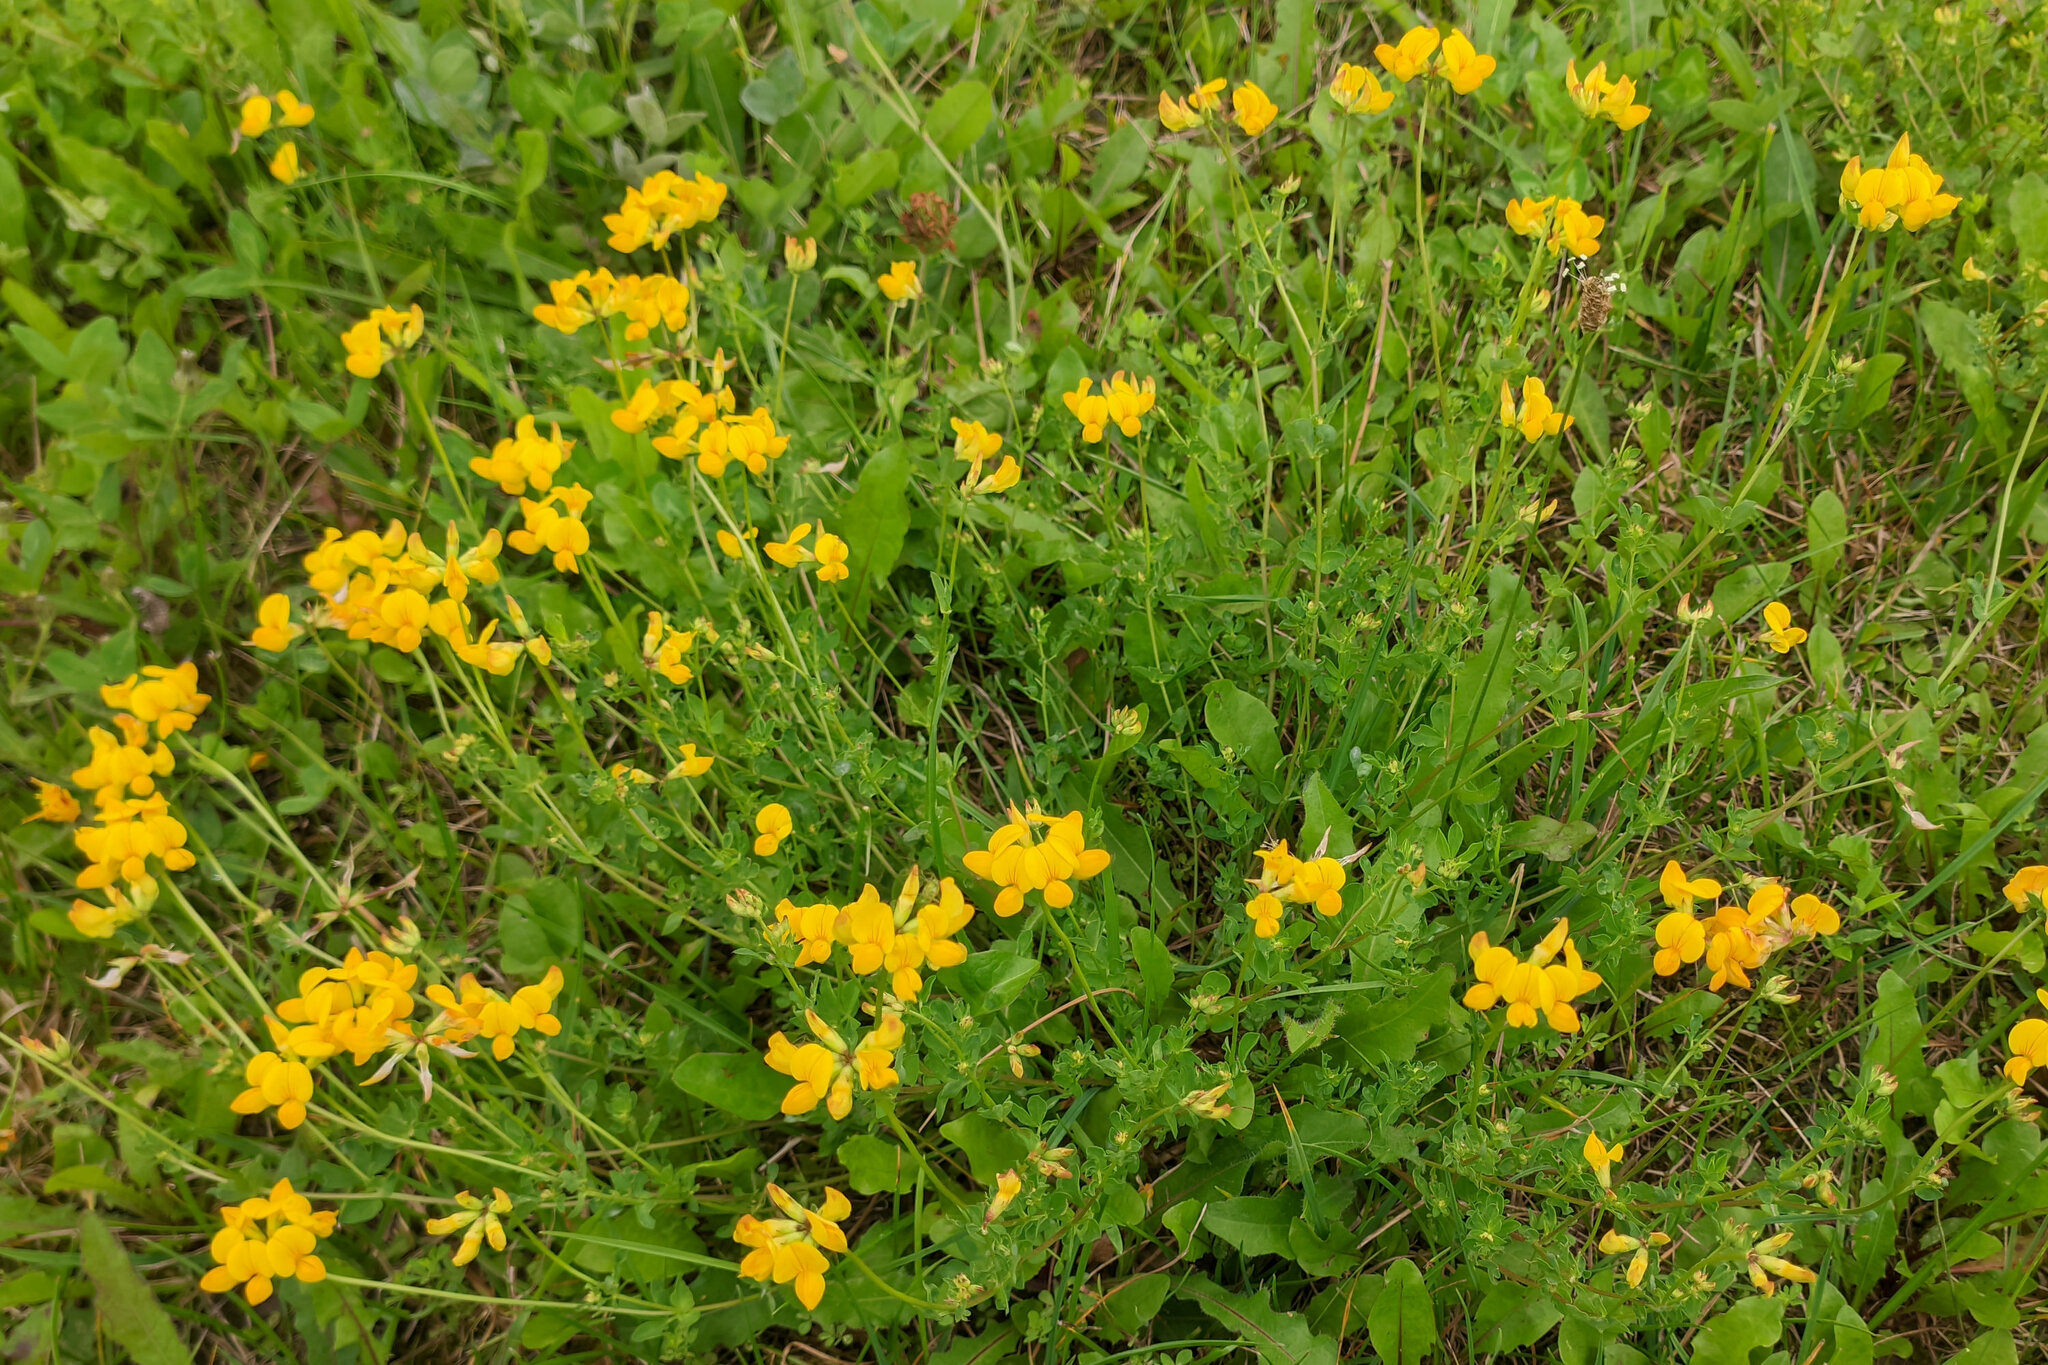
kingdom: Plantae
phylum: Tracheophyta
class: Magnoliopsida
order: Fabales
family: Fabaceae
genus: Lotus
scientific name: Lotus corniculatus
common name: Common bird's-foot-trefoil
